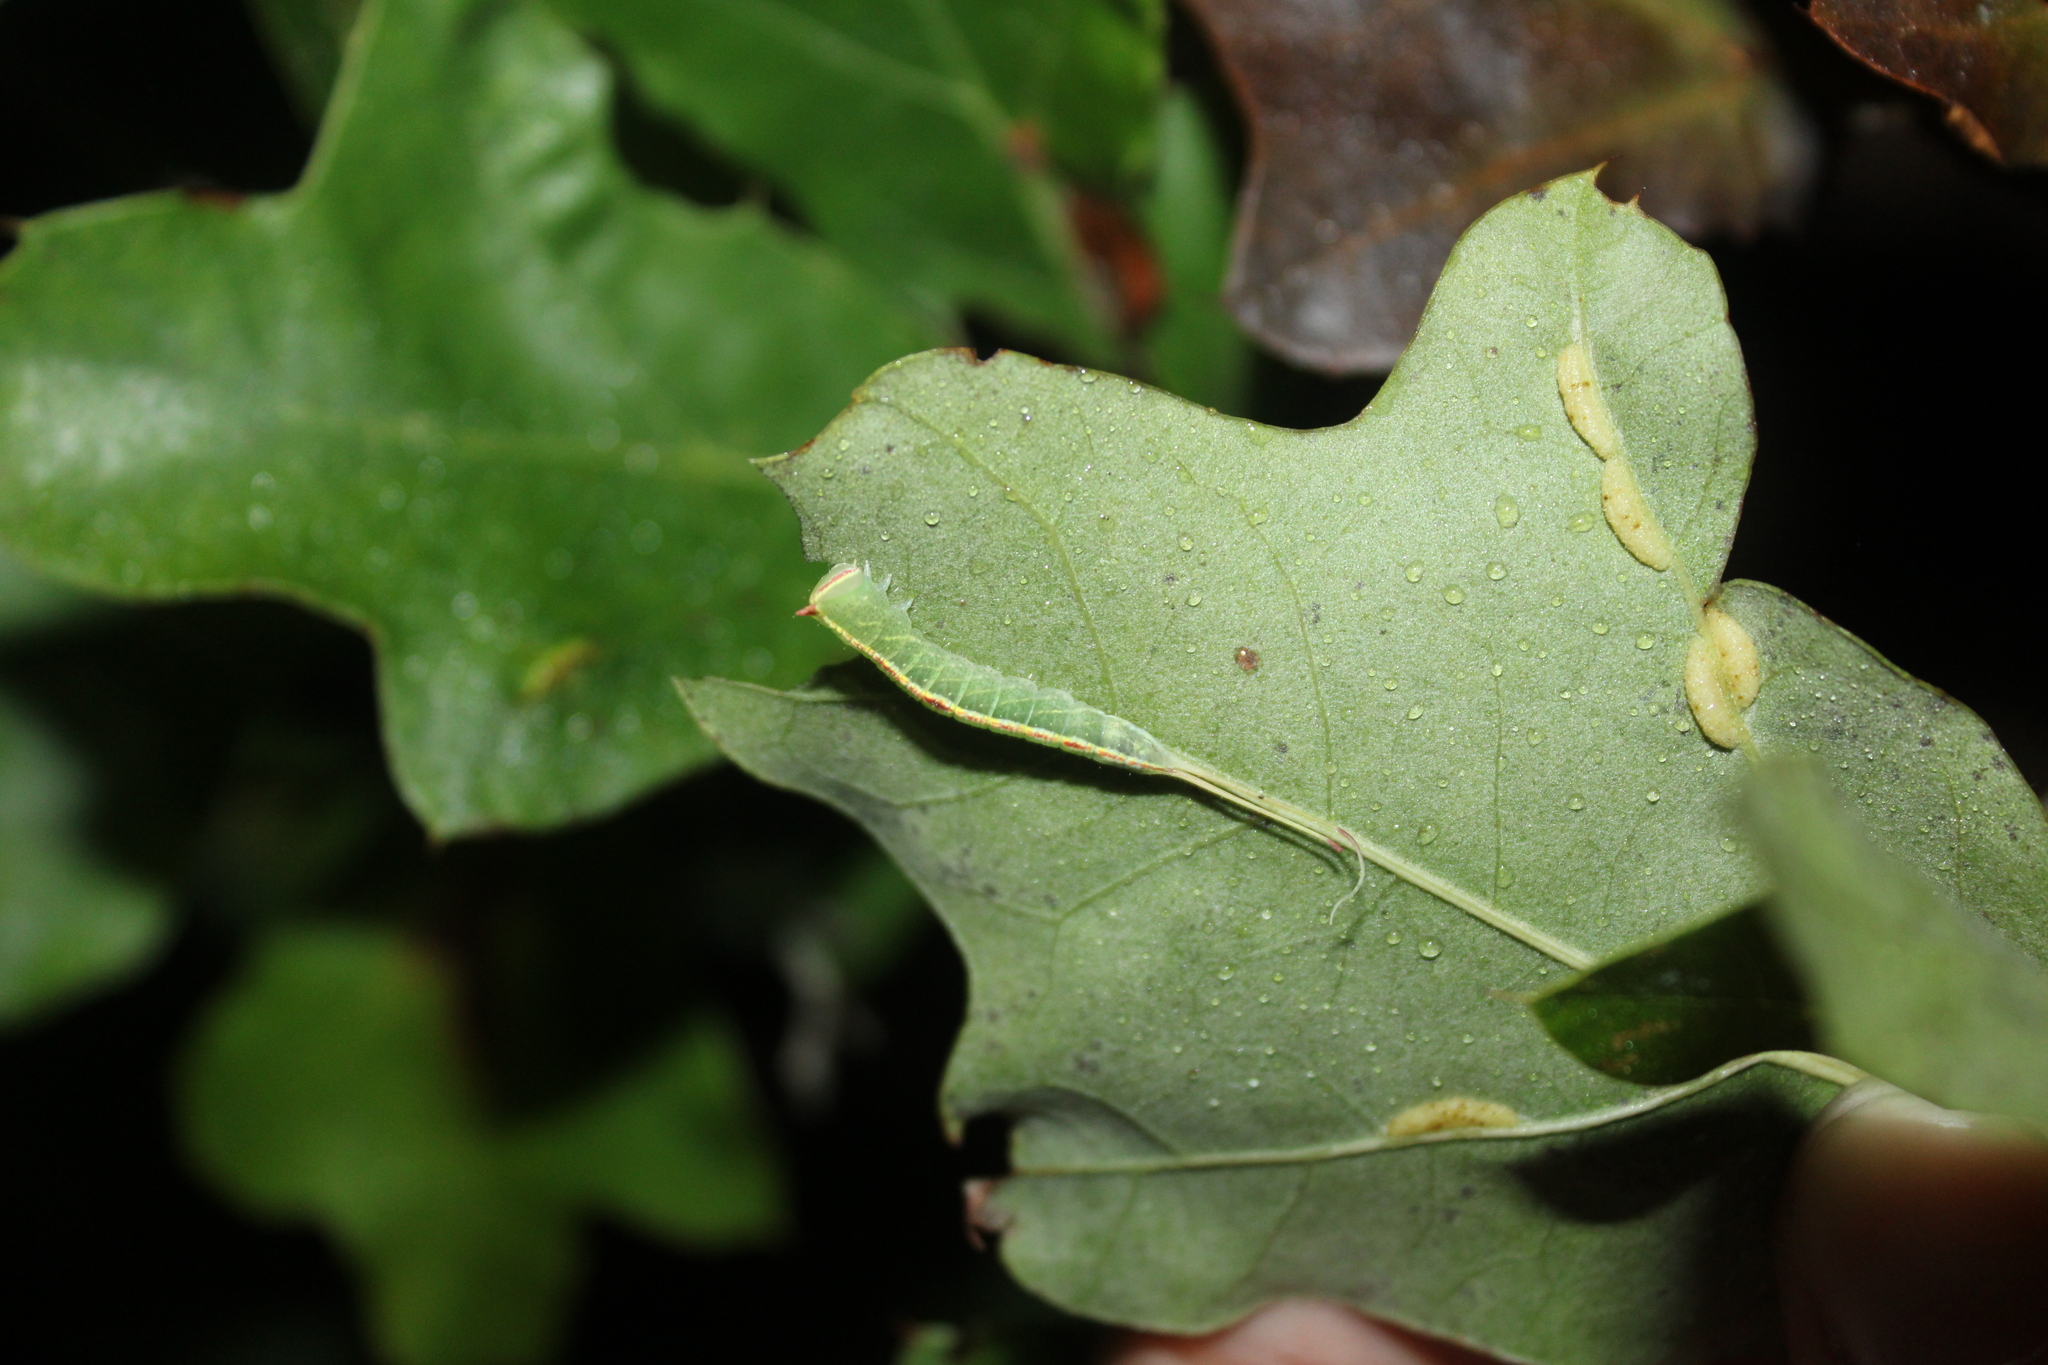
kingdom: Animalia
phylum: Arthropoda
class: Insecta
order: Lepidoptera
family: Notodontidae
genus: Macrurocampa
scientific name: Macrurocampa marthesia
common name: Mottled prominent
